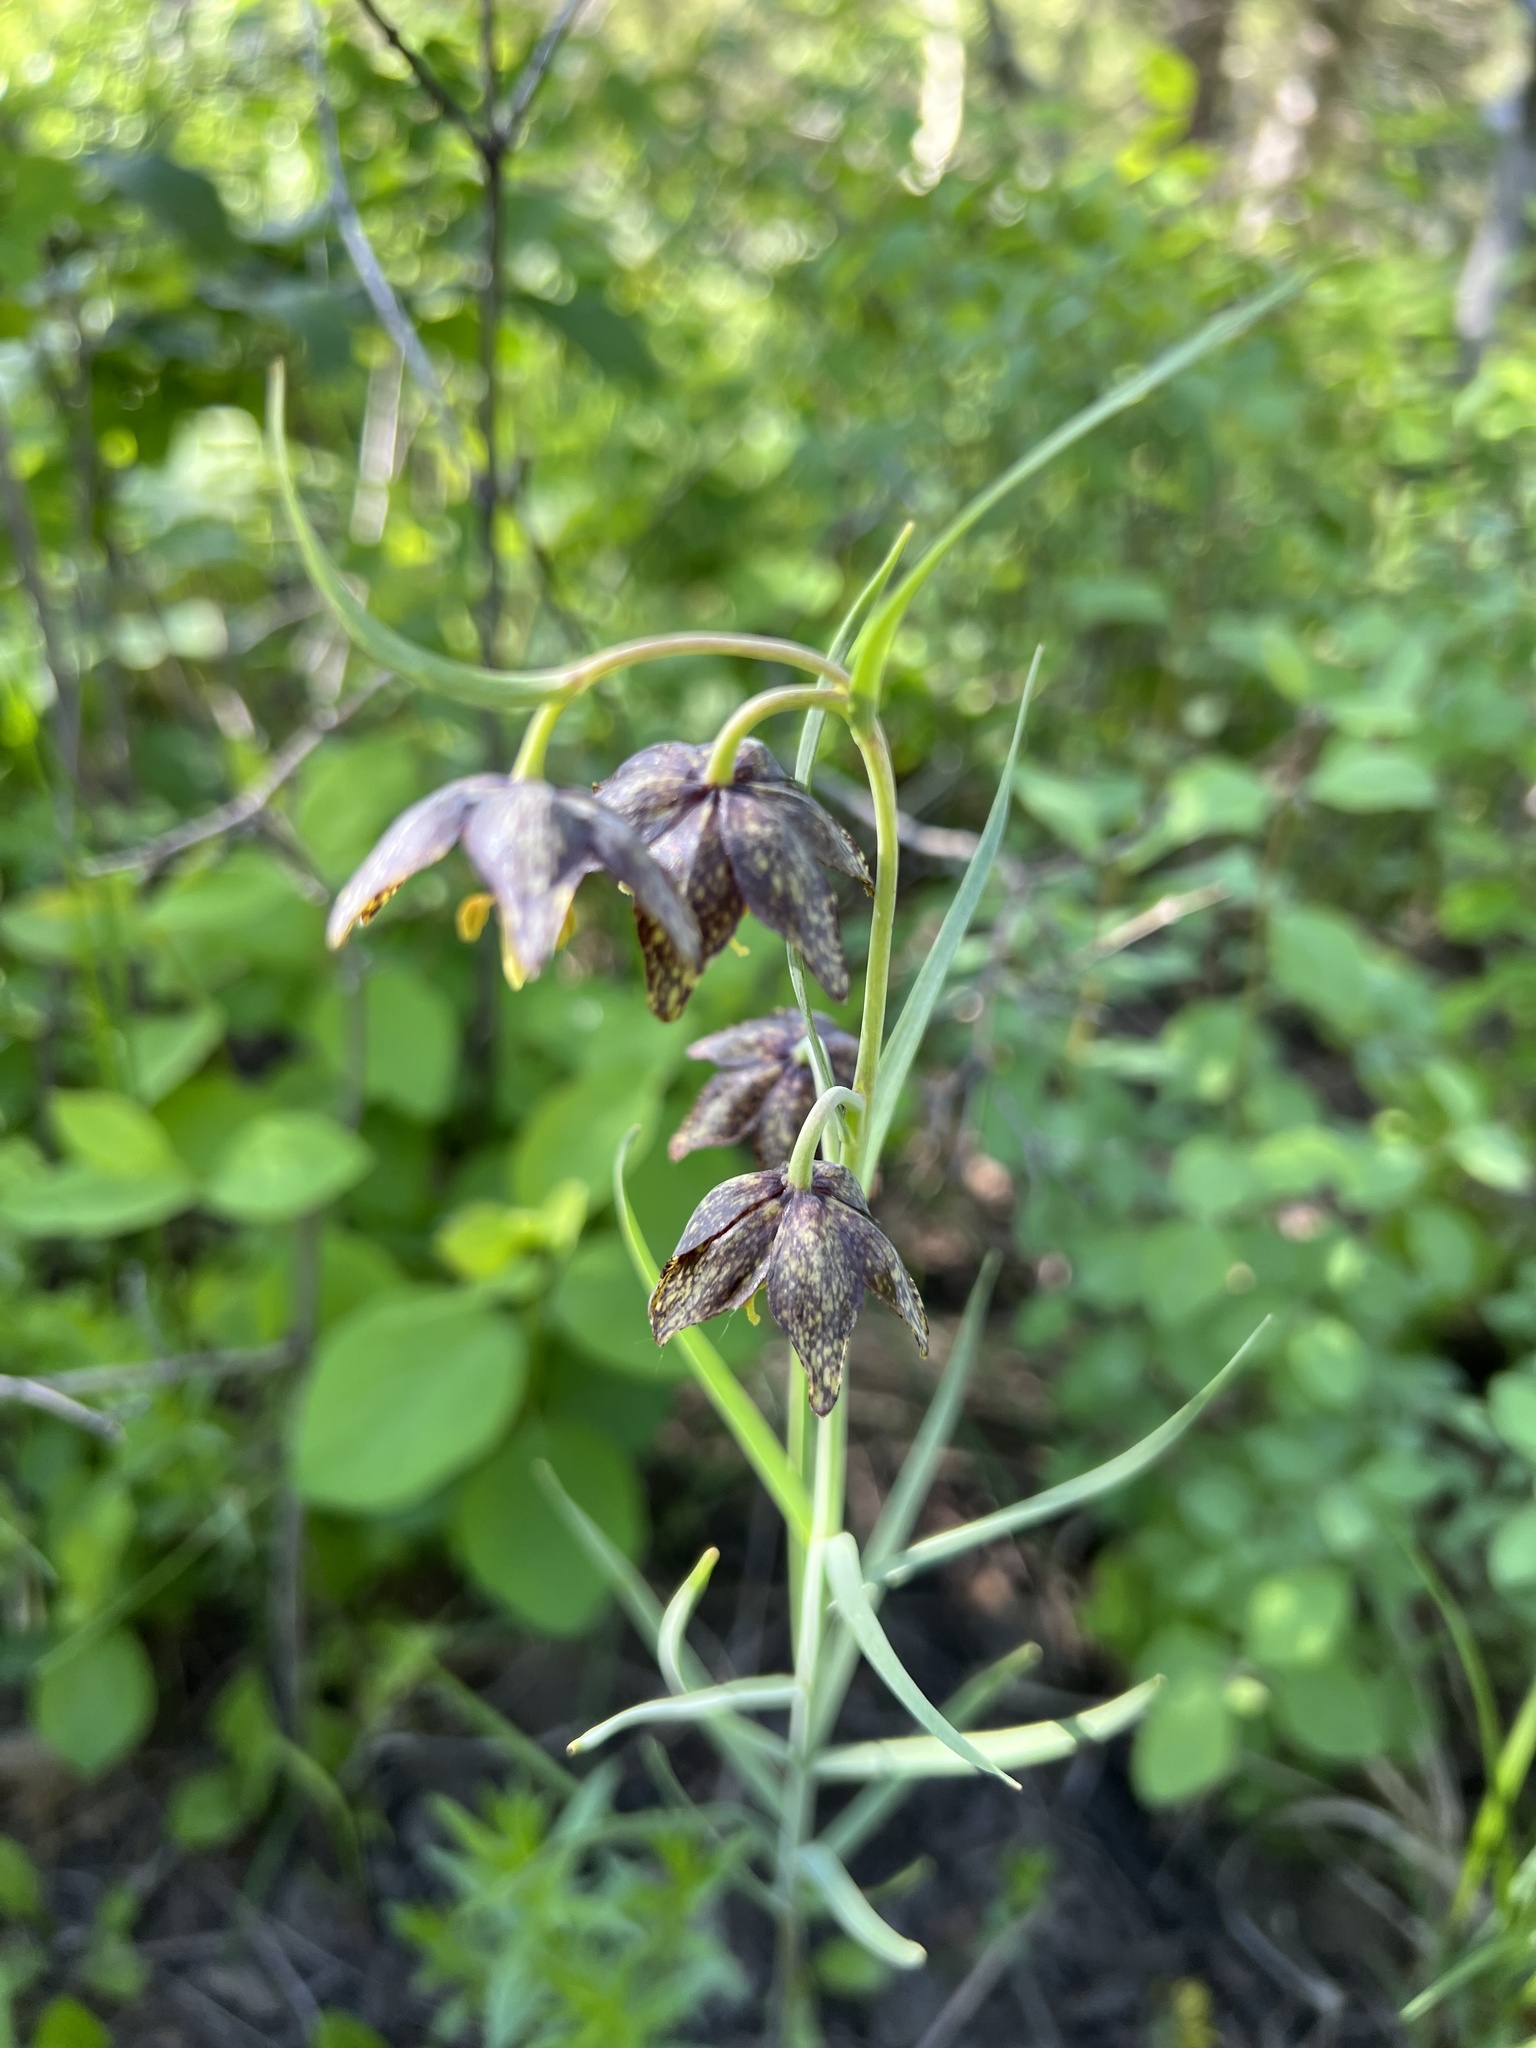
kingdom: Plantae
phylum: Tracheophyta
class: Liliopsida
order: Liliales
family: Liliaceae
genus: Fritillaria
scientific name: Fritillaria atropurpurea
